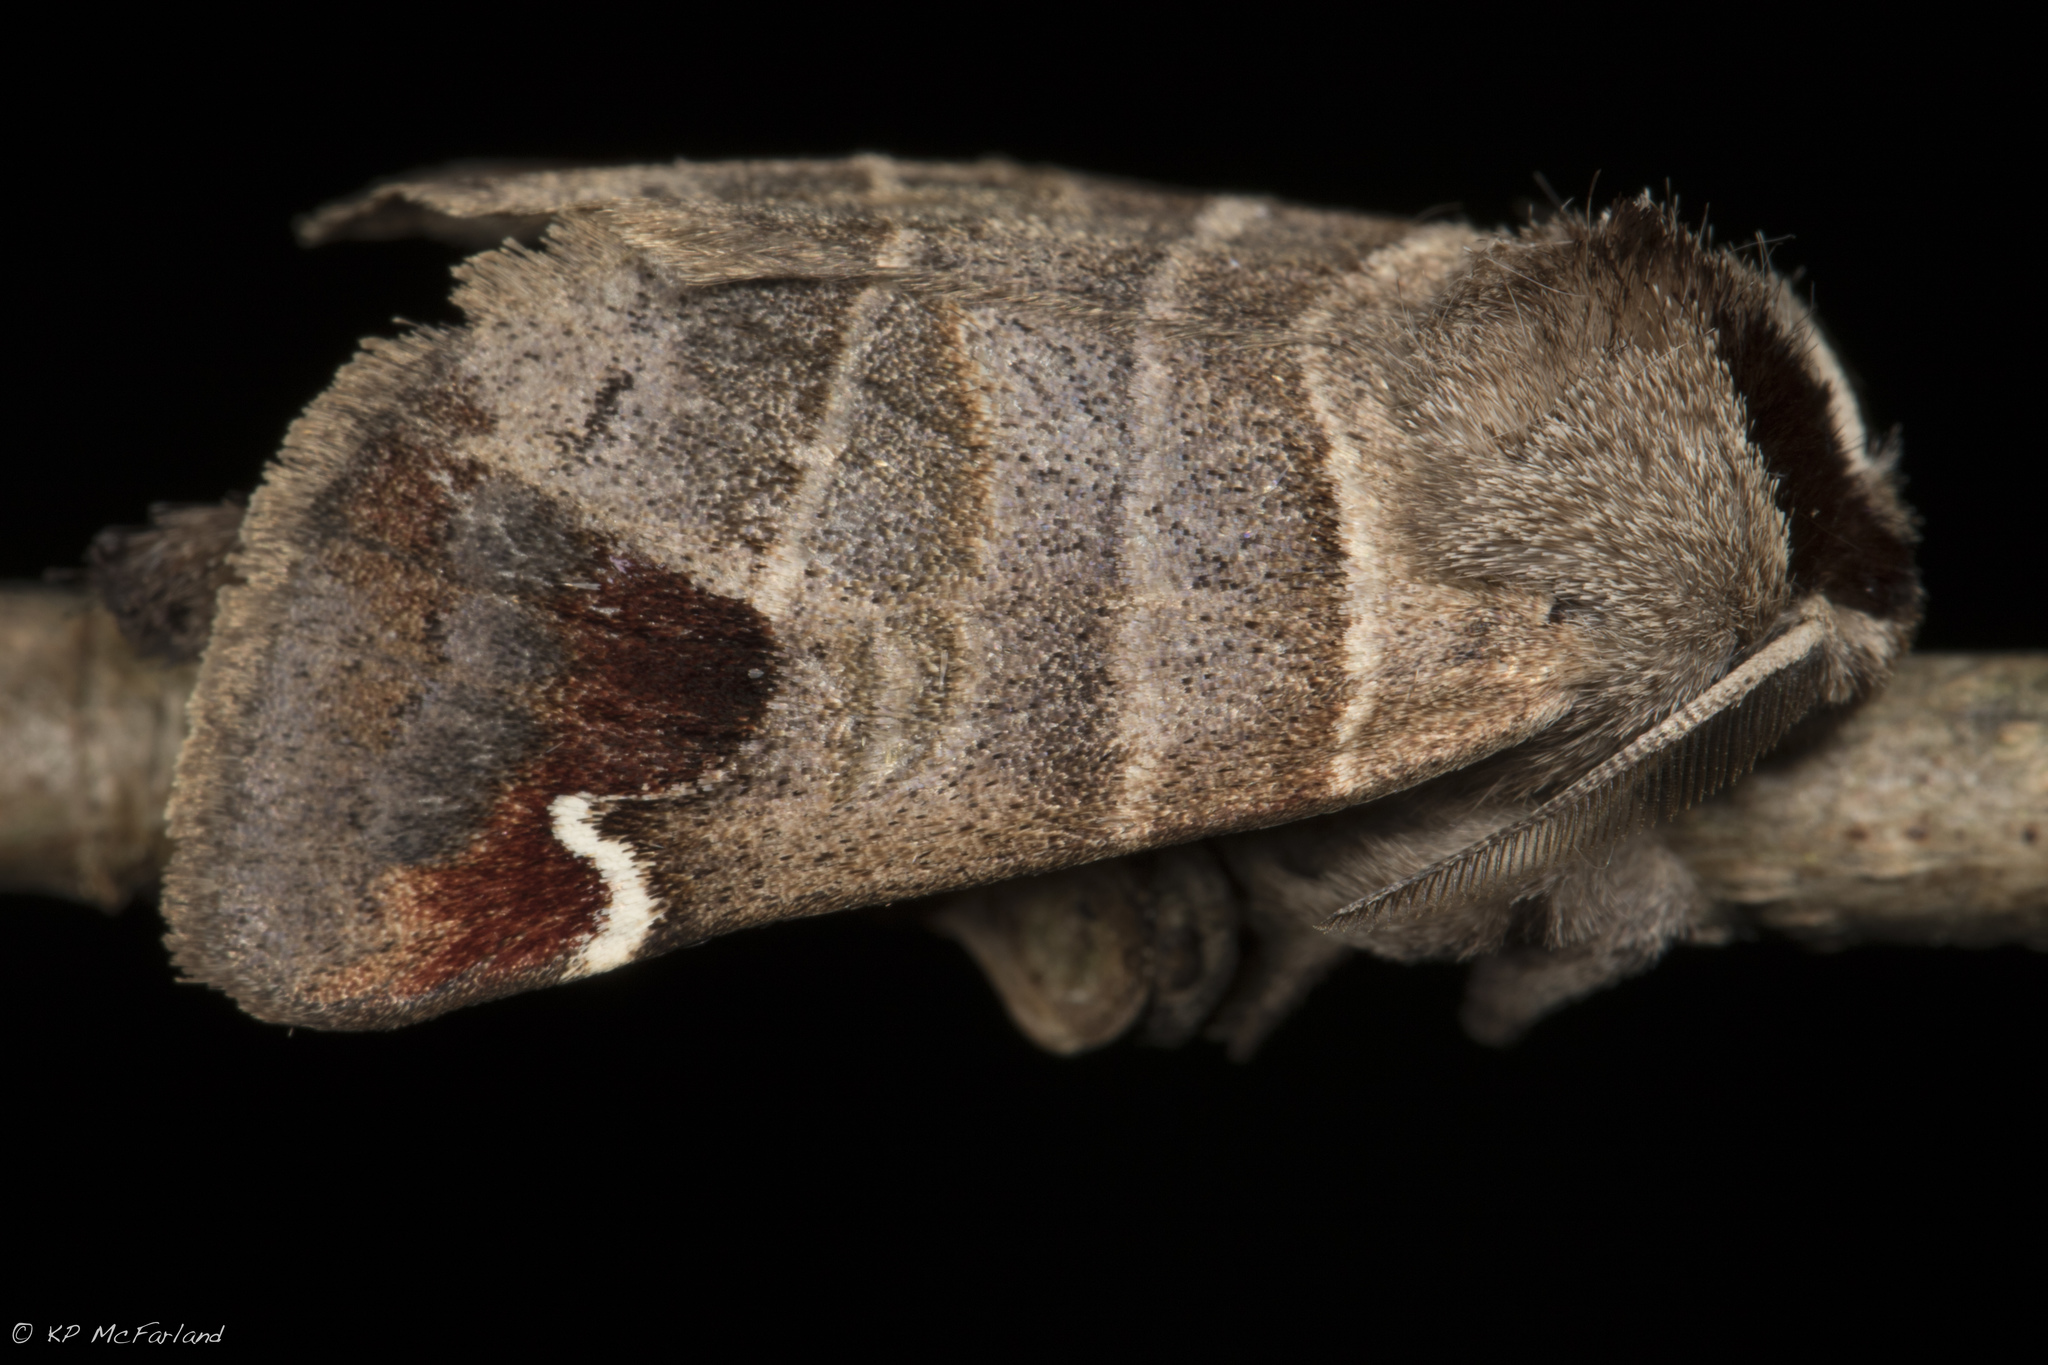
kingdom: Animalia
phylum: Arthropoda
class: Insecta
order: Lepidoptera
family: Notodontidae
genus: Clostera
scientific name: Clostera albosigma
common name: Sigmoid prominent
